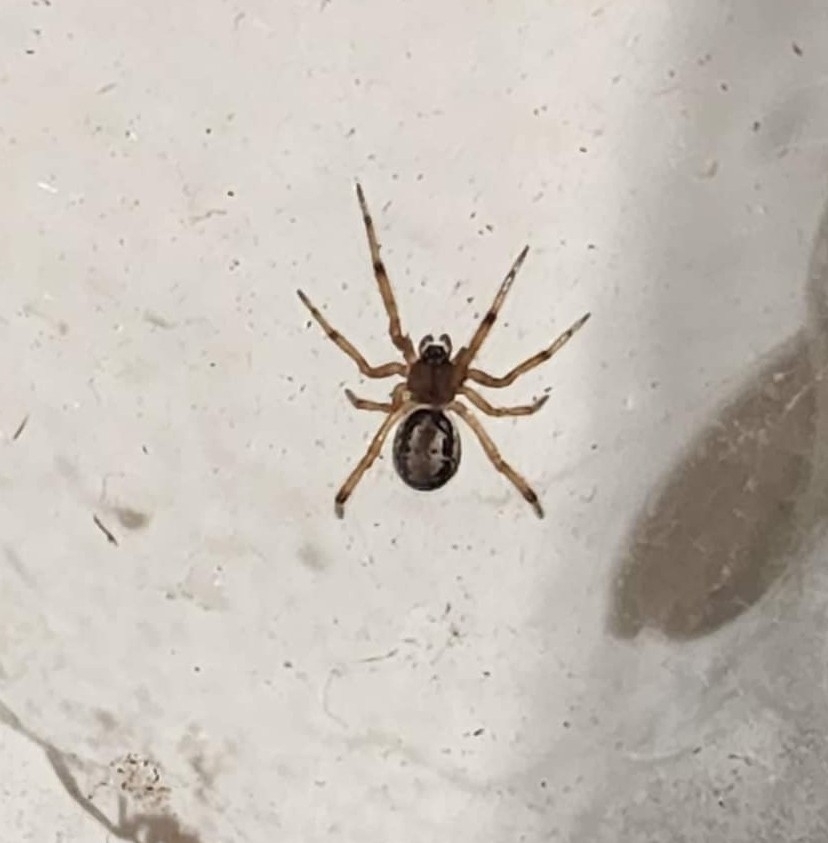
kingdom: Animalia
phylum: Arthropoda
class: Arachnida
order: Araneae
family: Theridiidae
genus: Steatoda
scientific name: Steatoda nobilis
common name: Cobweb weaver
